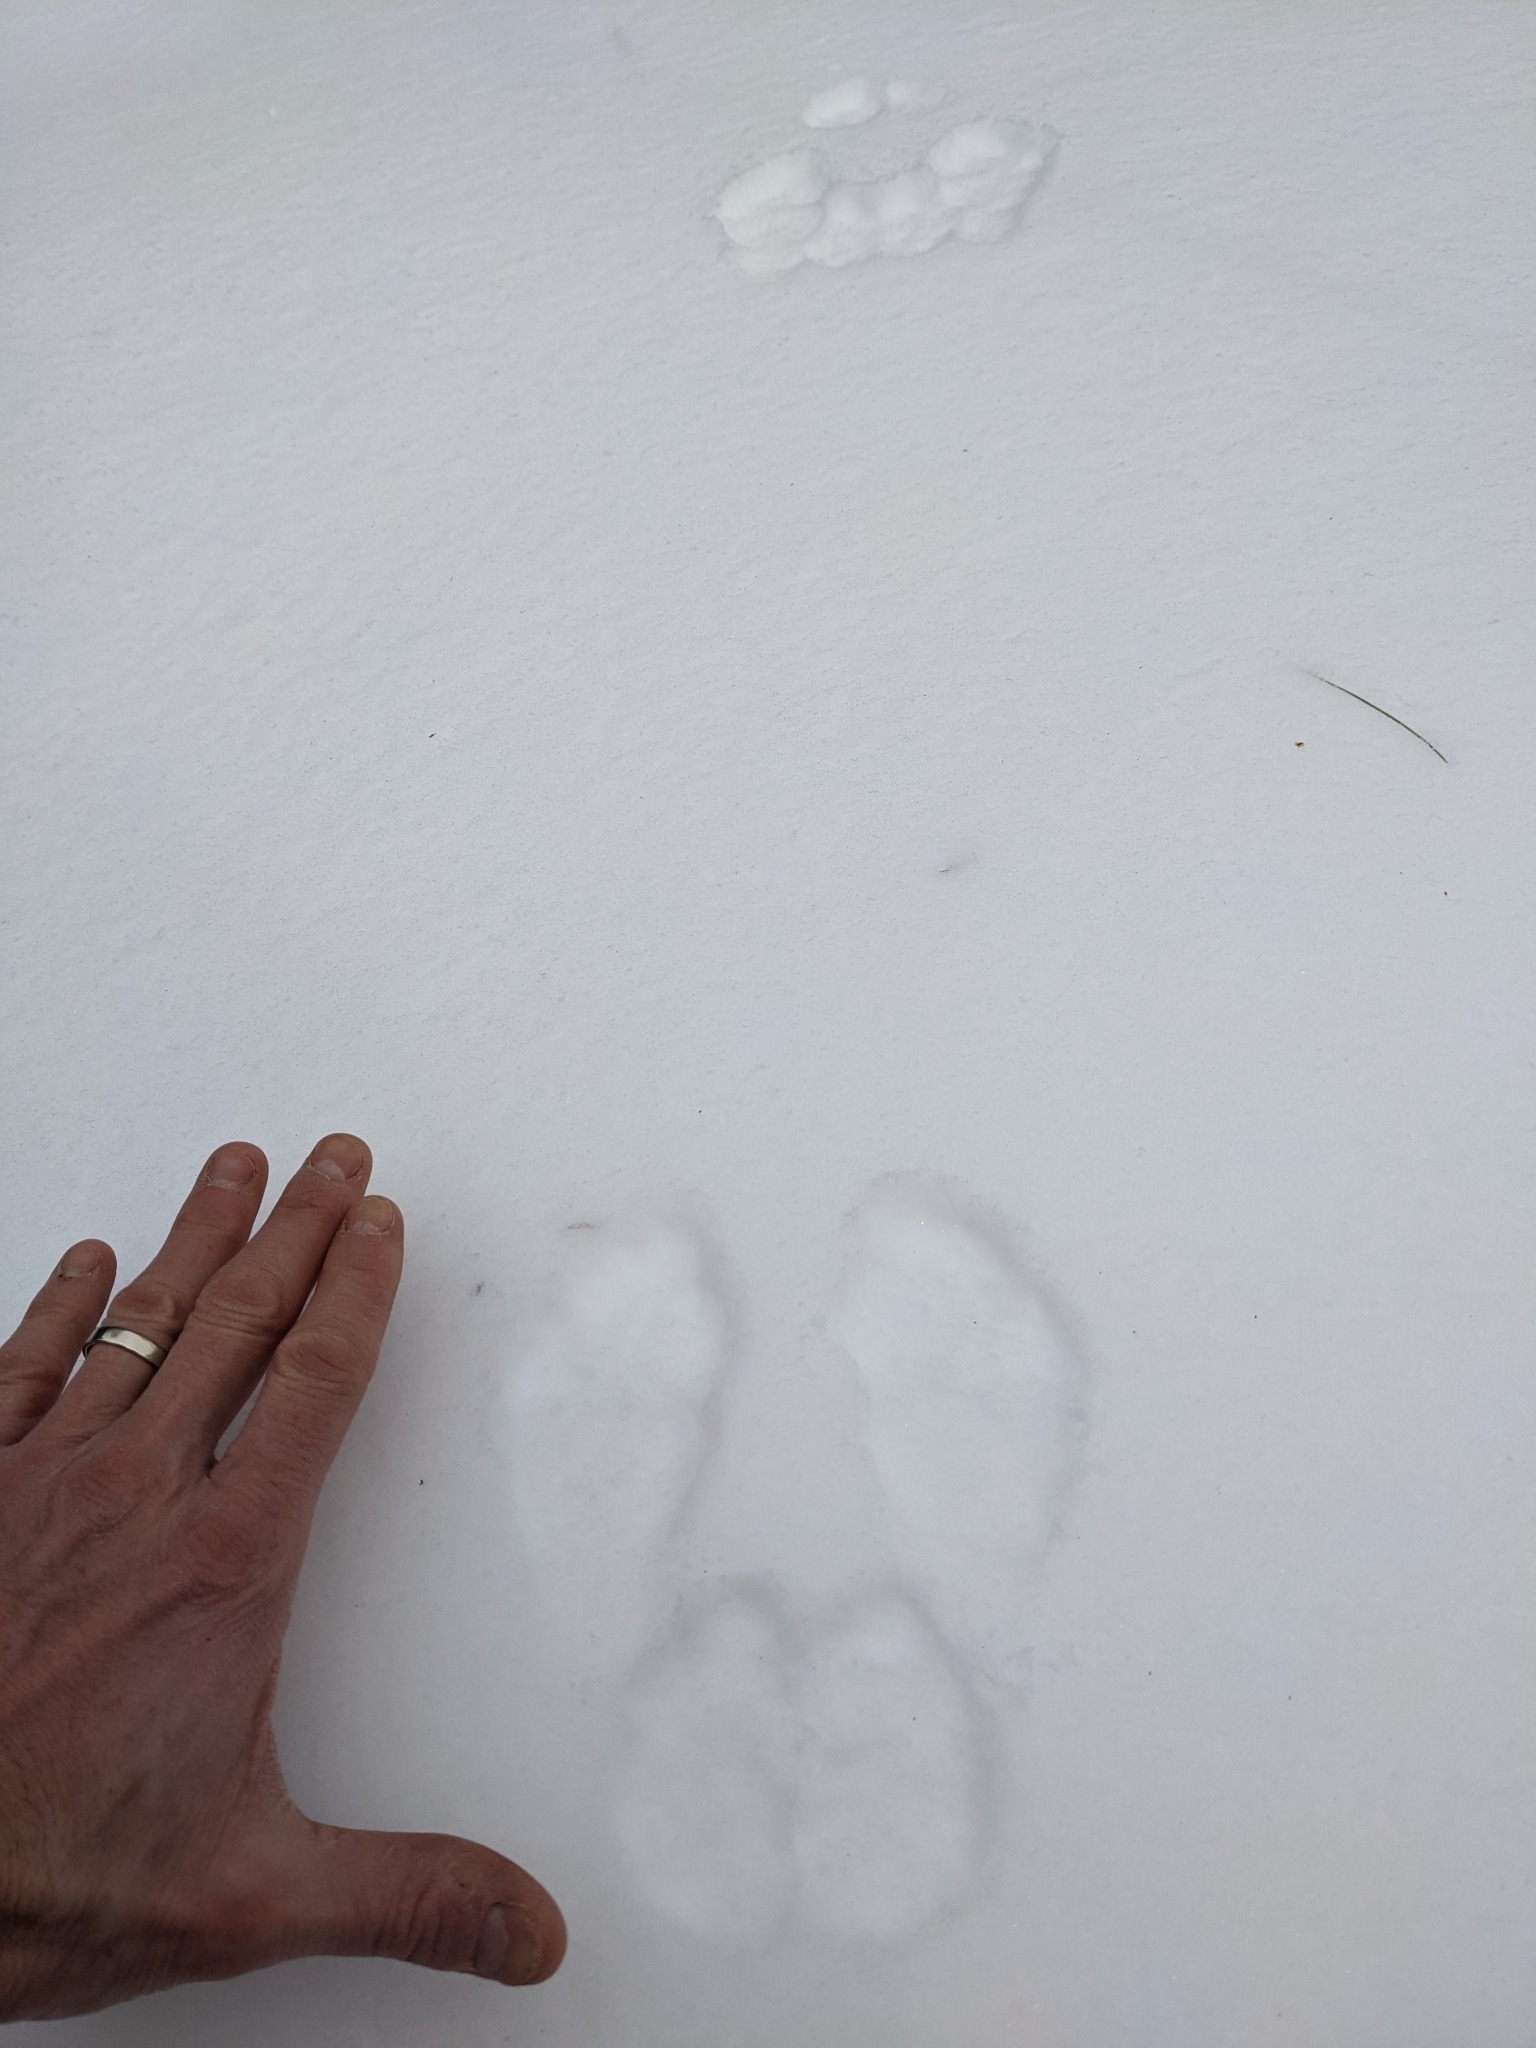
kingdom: Animalia
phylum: Chordata
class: Mammalia
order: Lagomorpha
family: Leporidae
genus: Lepus
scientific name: Lepus americanus
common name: Snowshoe hare
